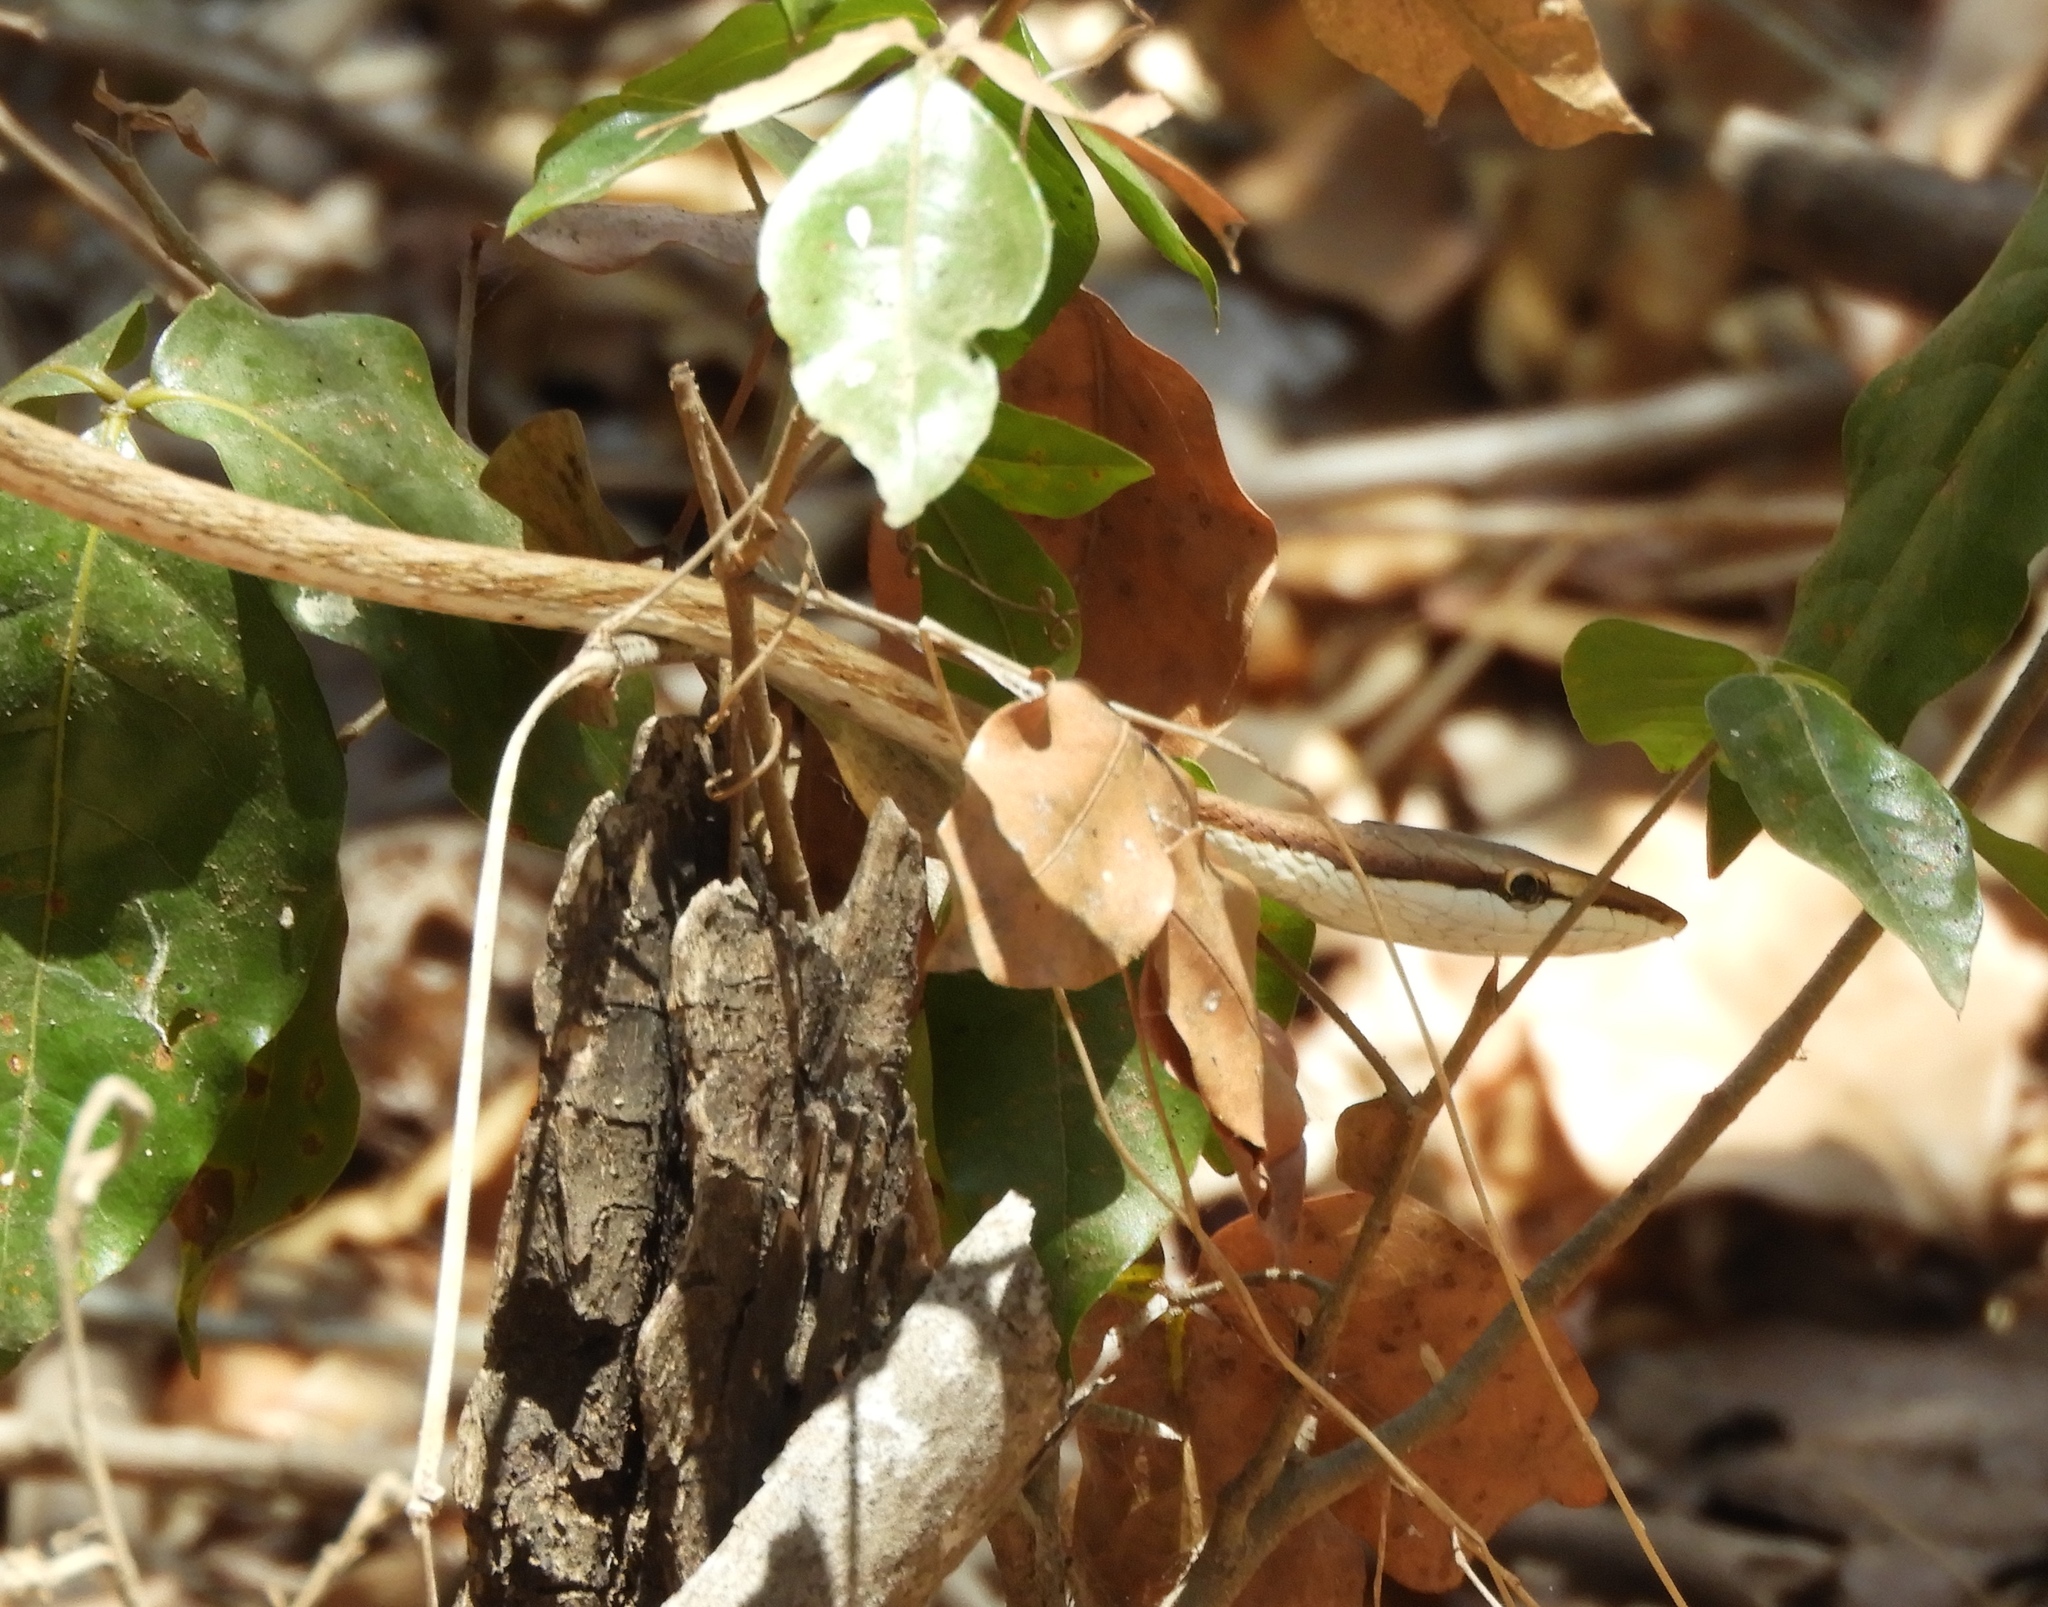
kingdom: Animalia
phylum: Chordata
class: Squamata
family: Colubridae
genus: Oxybelis
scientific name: Oxybelis microphthalmus
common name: Thrornscrub vine snake
